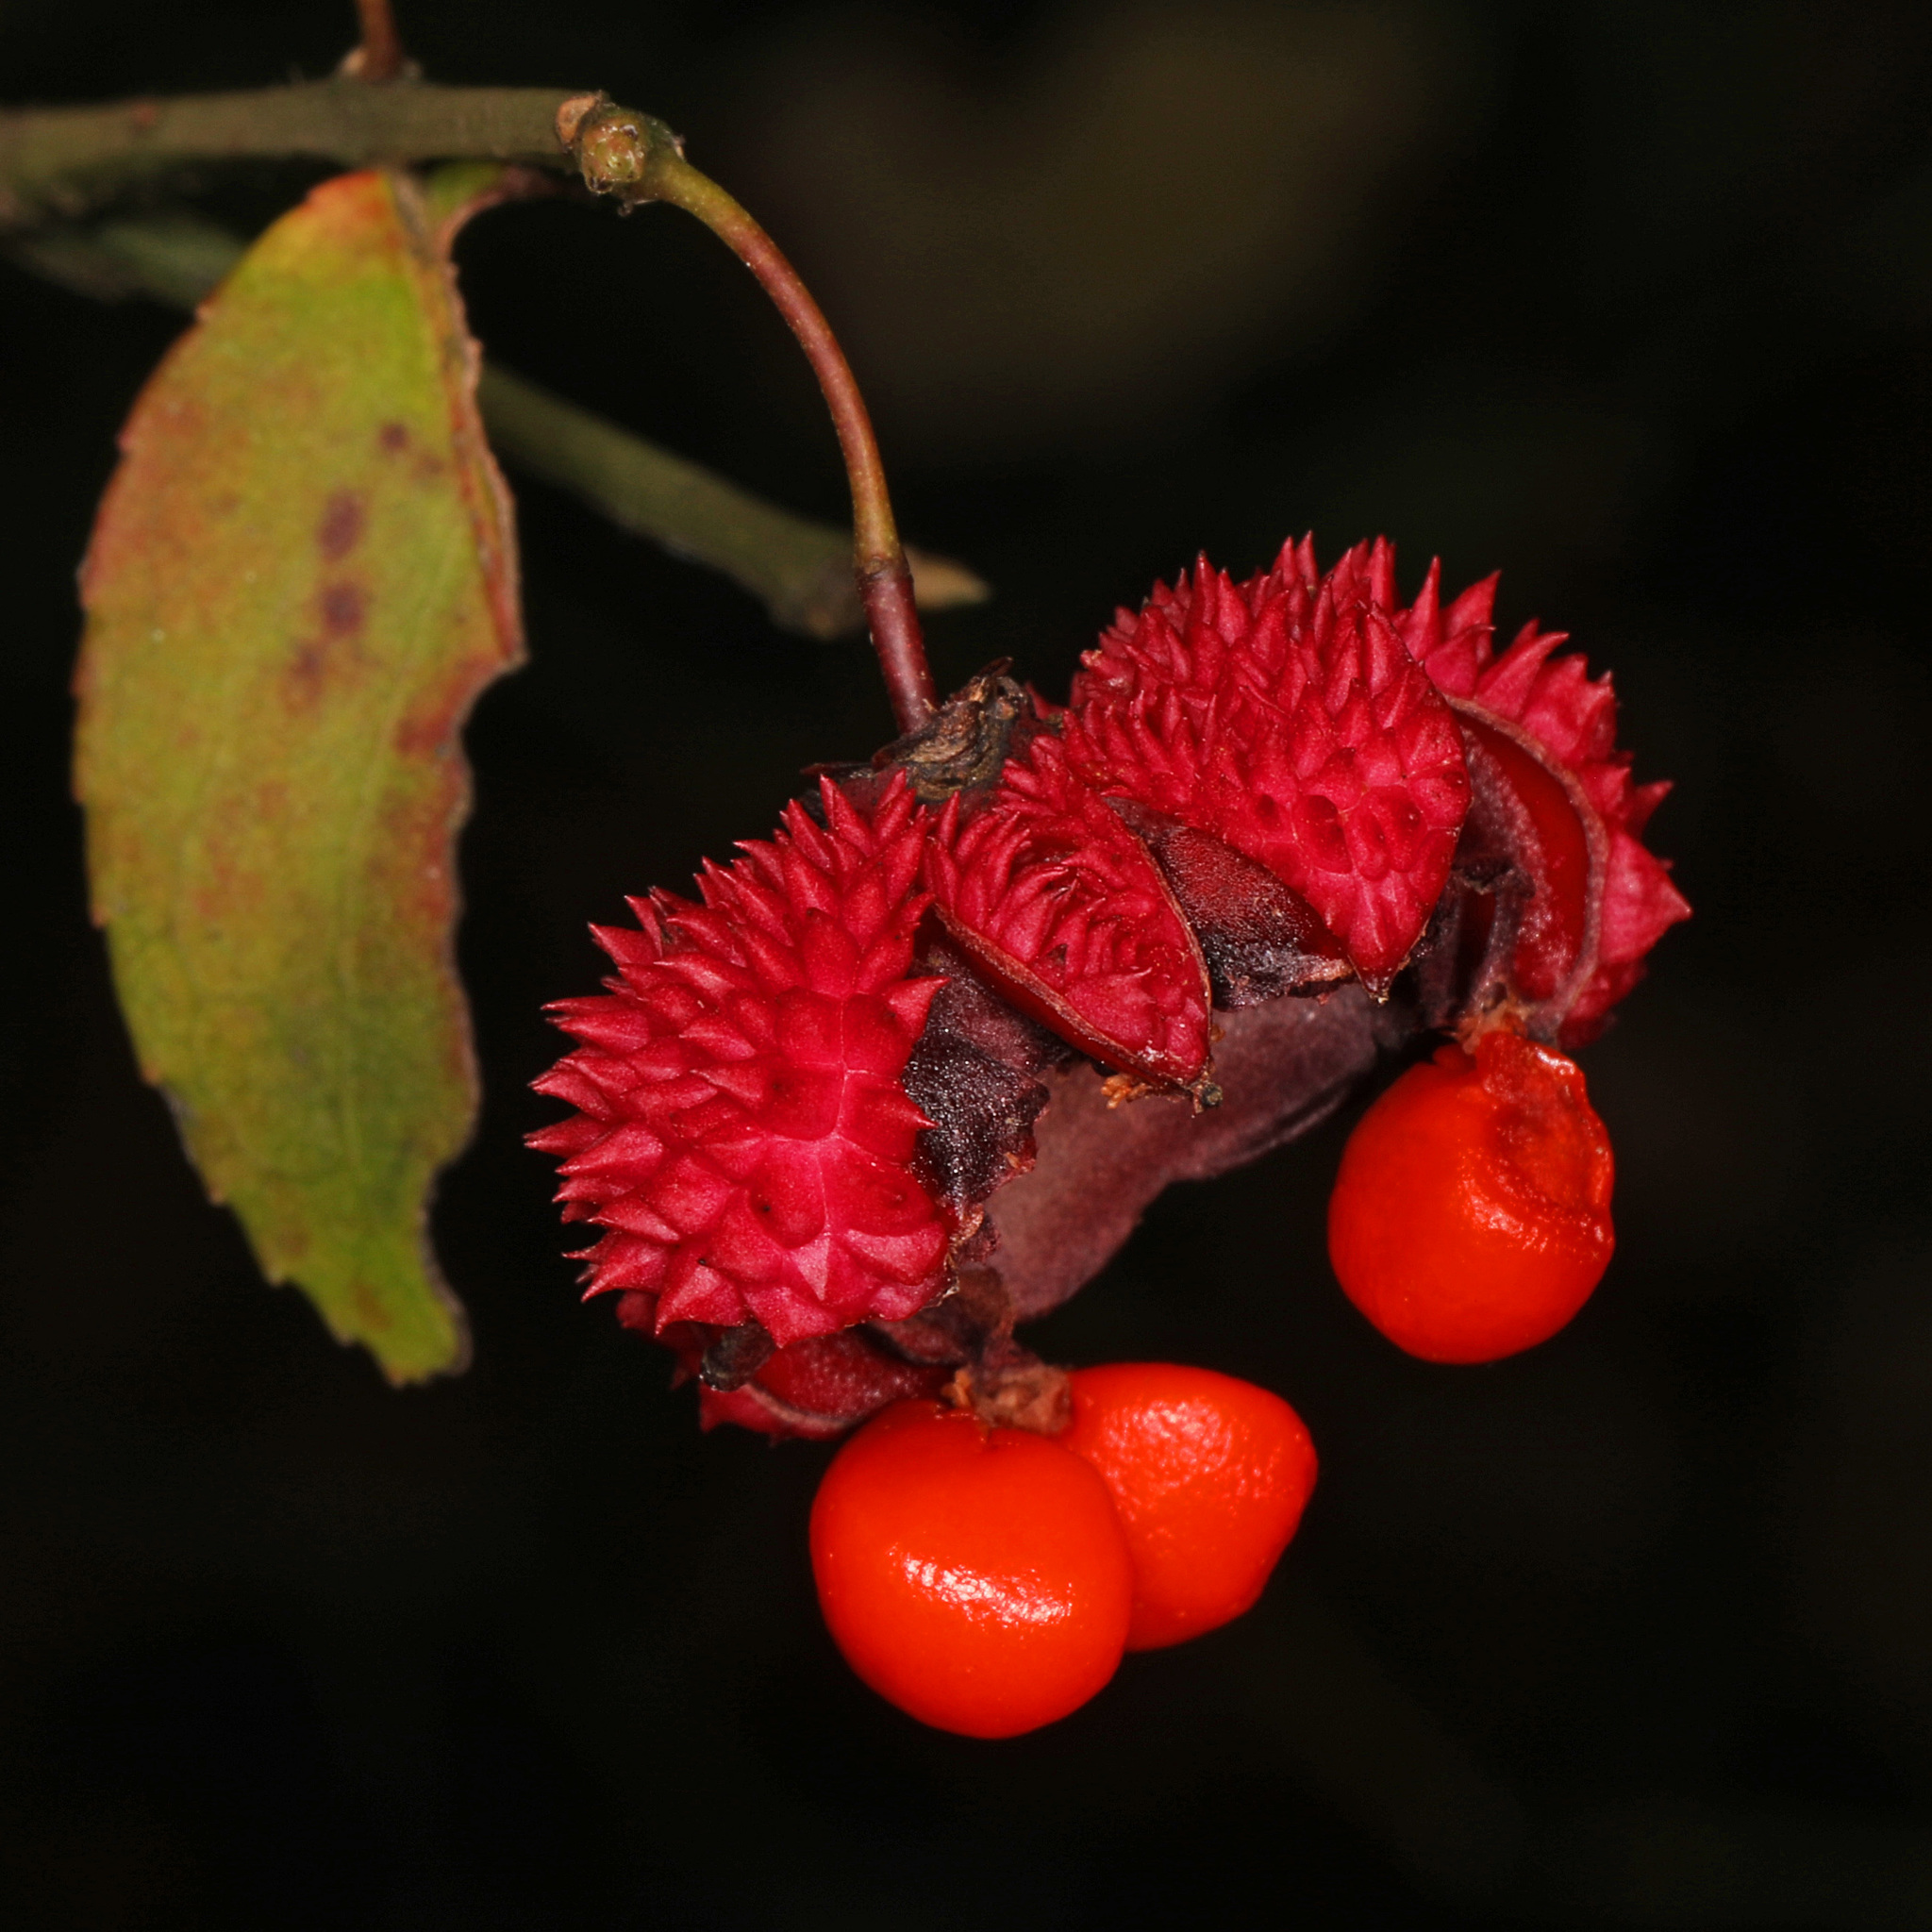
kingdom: Plantae
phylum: Tracheophyta
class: Magnoliopsida
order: Celastrales
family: Celastraceae
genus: Euonymus
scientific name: Euonymus americanus
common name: Bursting-heart
